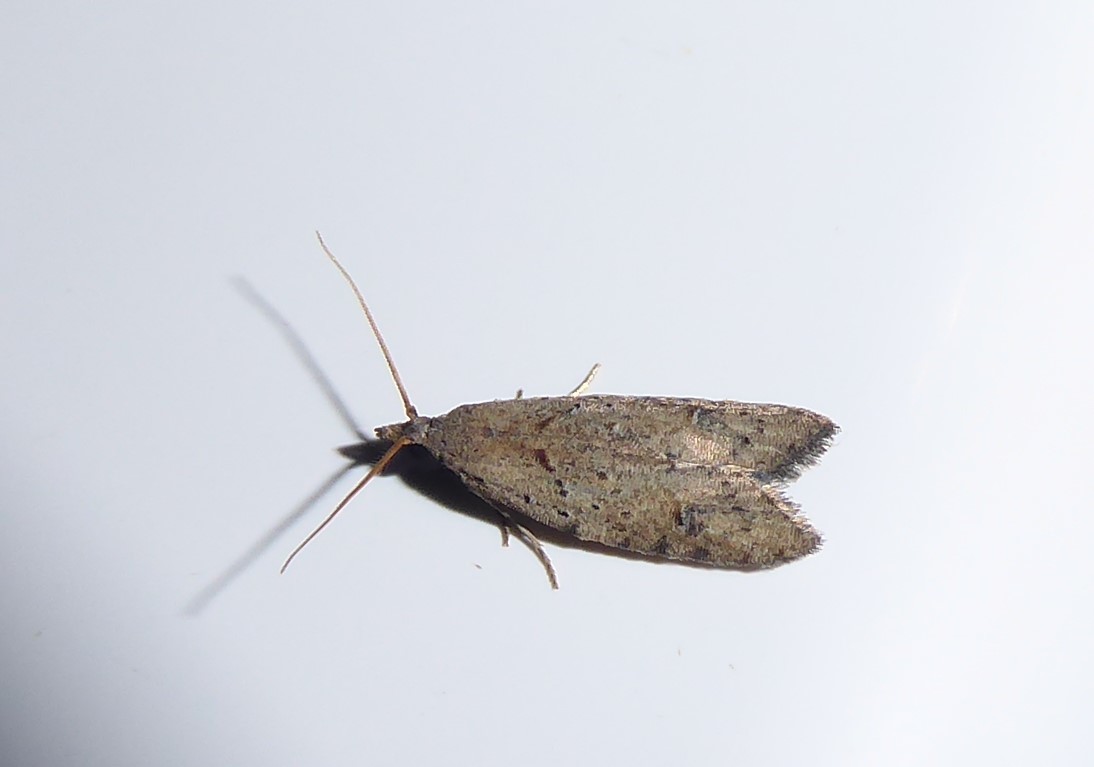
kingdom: Animalia
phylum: Arthropoda
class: Insecta
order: Lepidoptera
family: Carposinidae
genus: Carposina
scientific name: Carposina rubophaga
